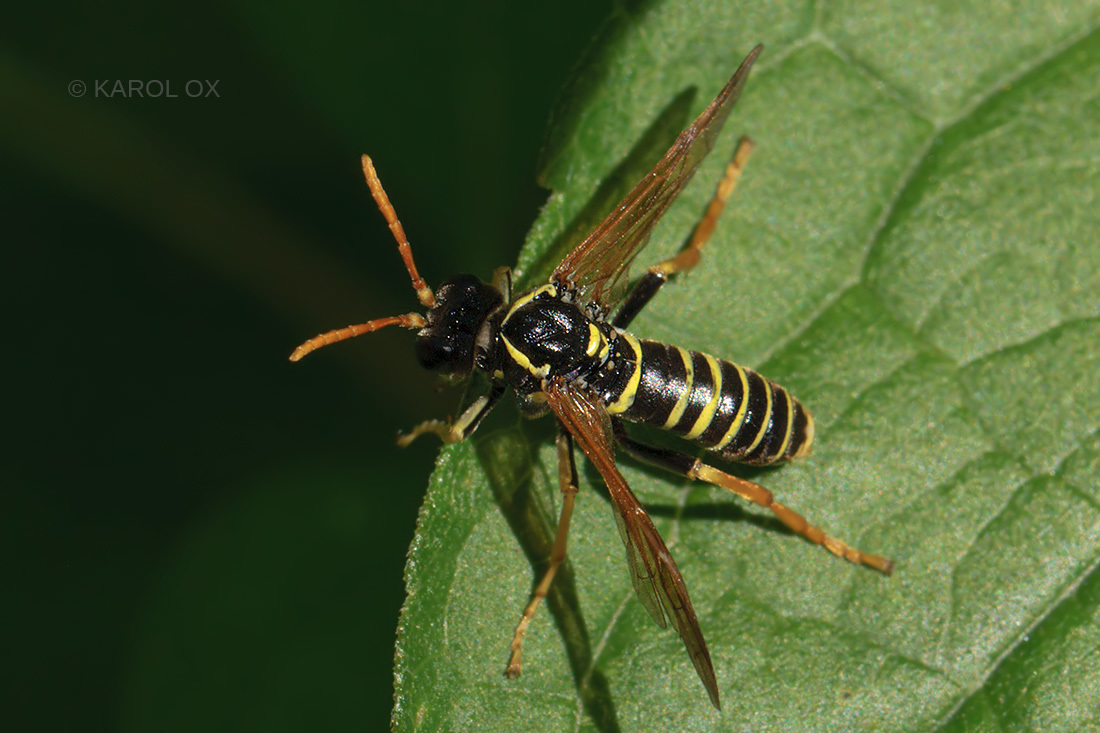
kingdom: Animalia
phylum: Arthropoda
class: Insecta
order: Hymenoptera
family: Tenthredinidae
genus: Tenthredo
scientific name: Tenthredo scrophulariae
